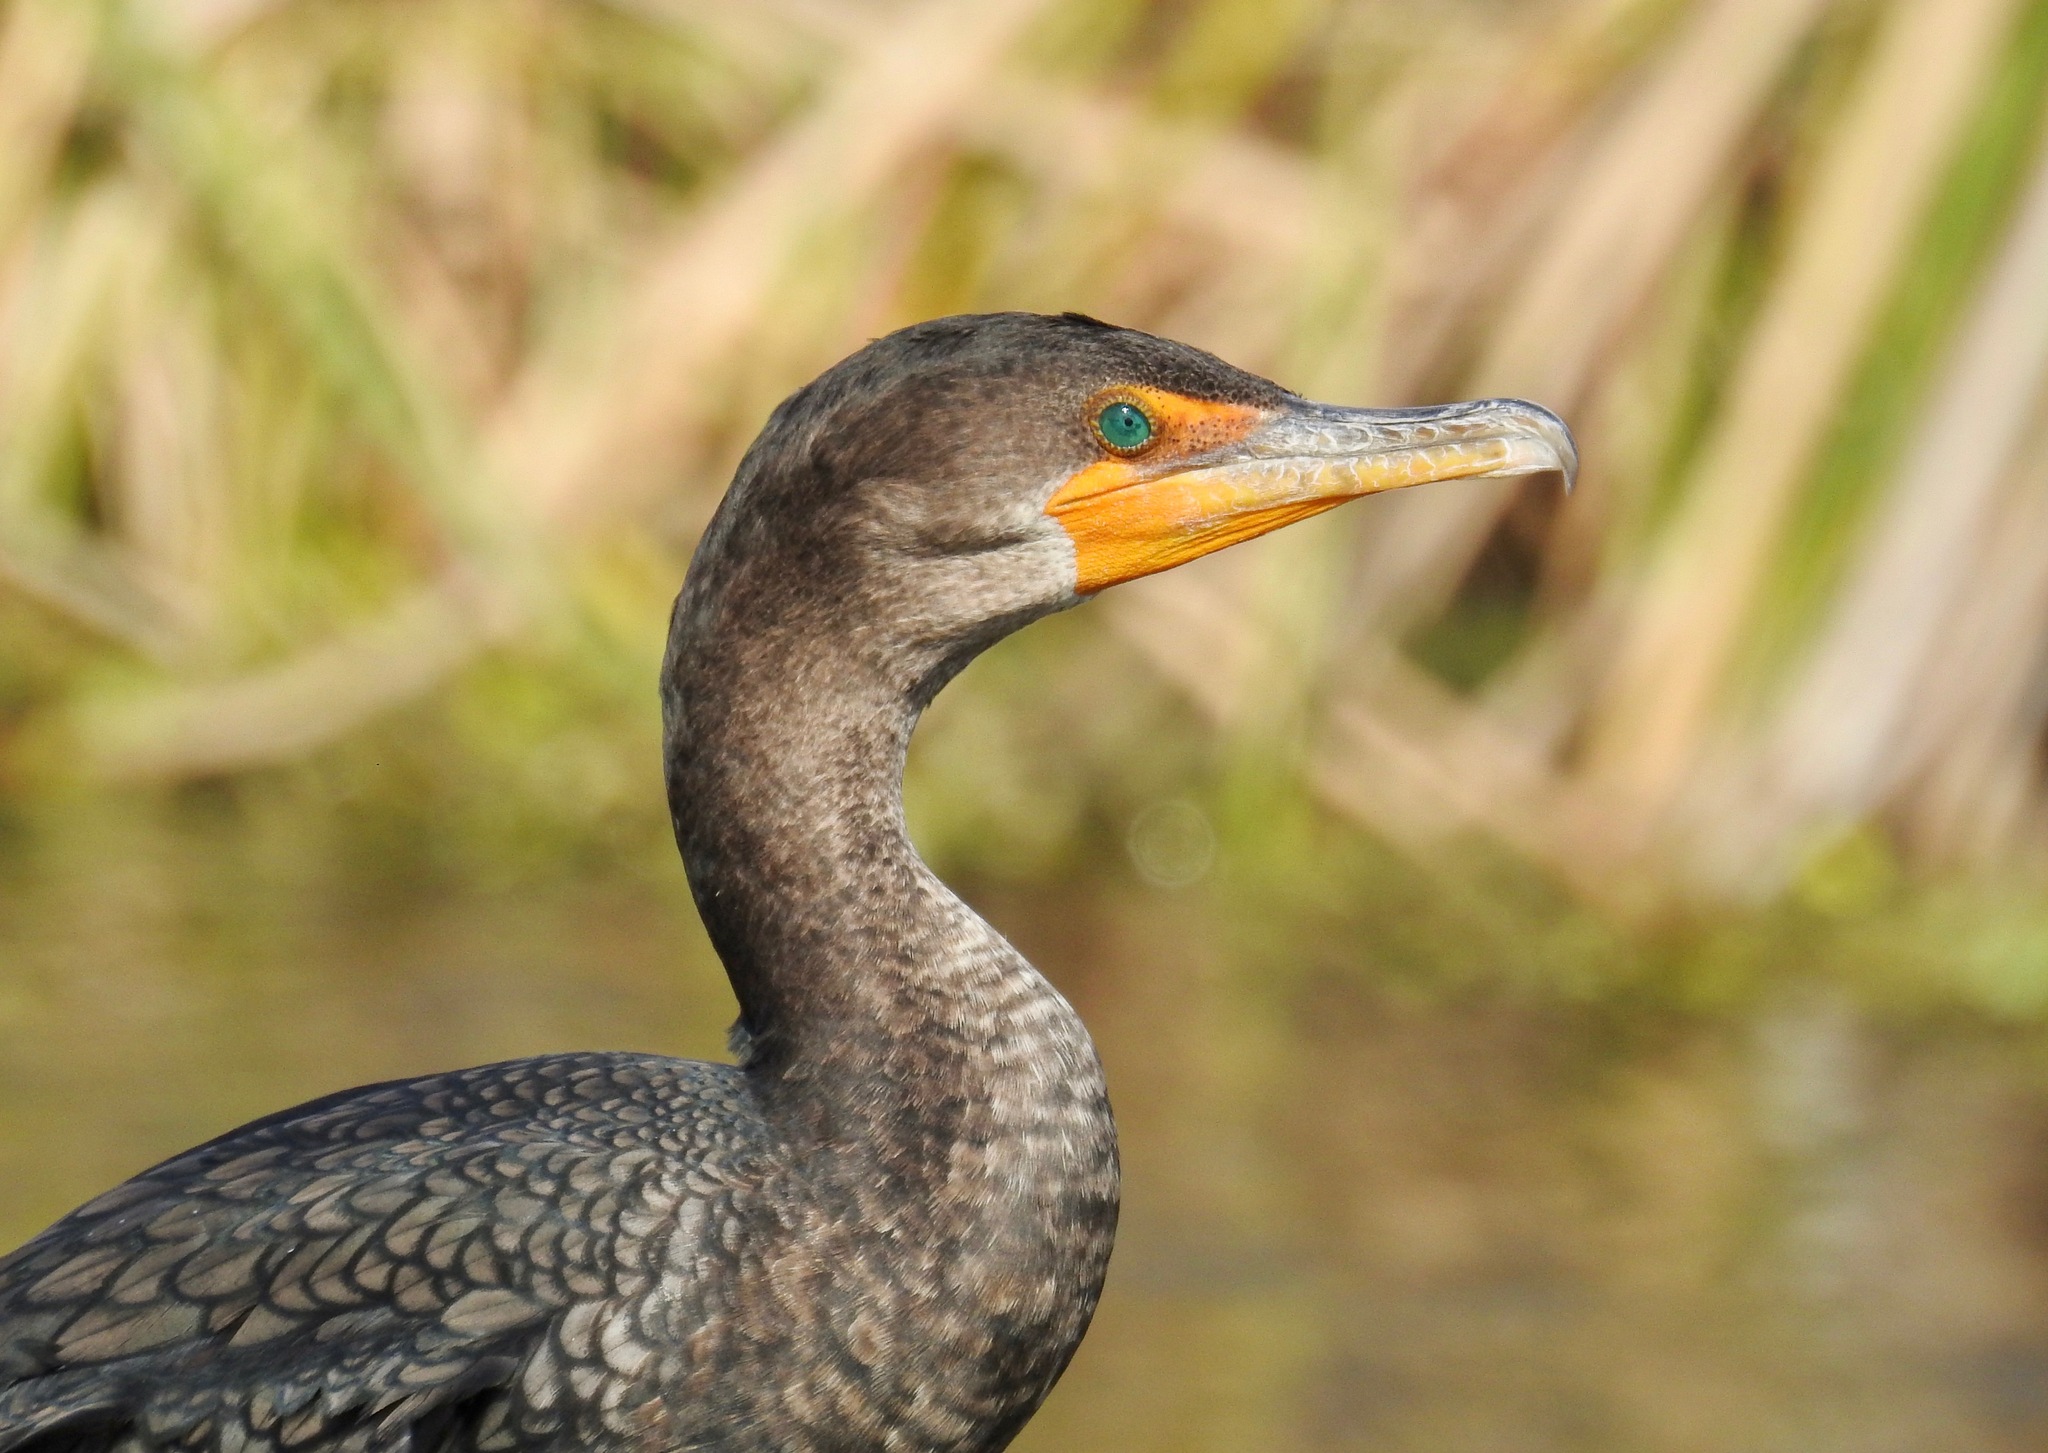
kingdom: Animalia
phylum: Chordata
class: Aves
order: Suliformes
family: Phalacrocoracidae
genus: Phalacrocorax
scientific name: Phalacrocorax auritus
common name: Double-crested cormorant
